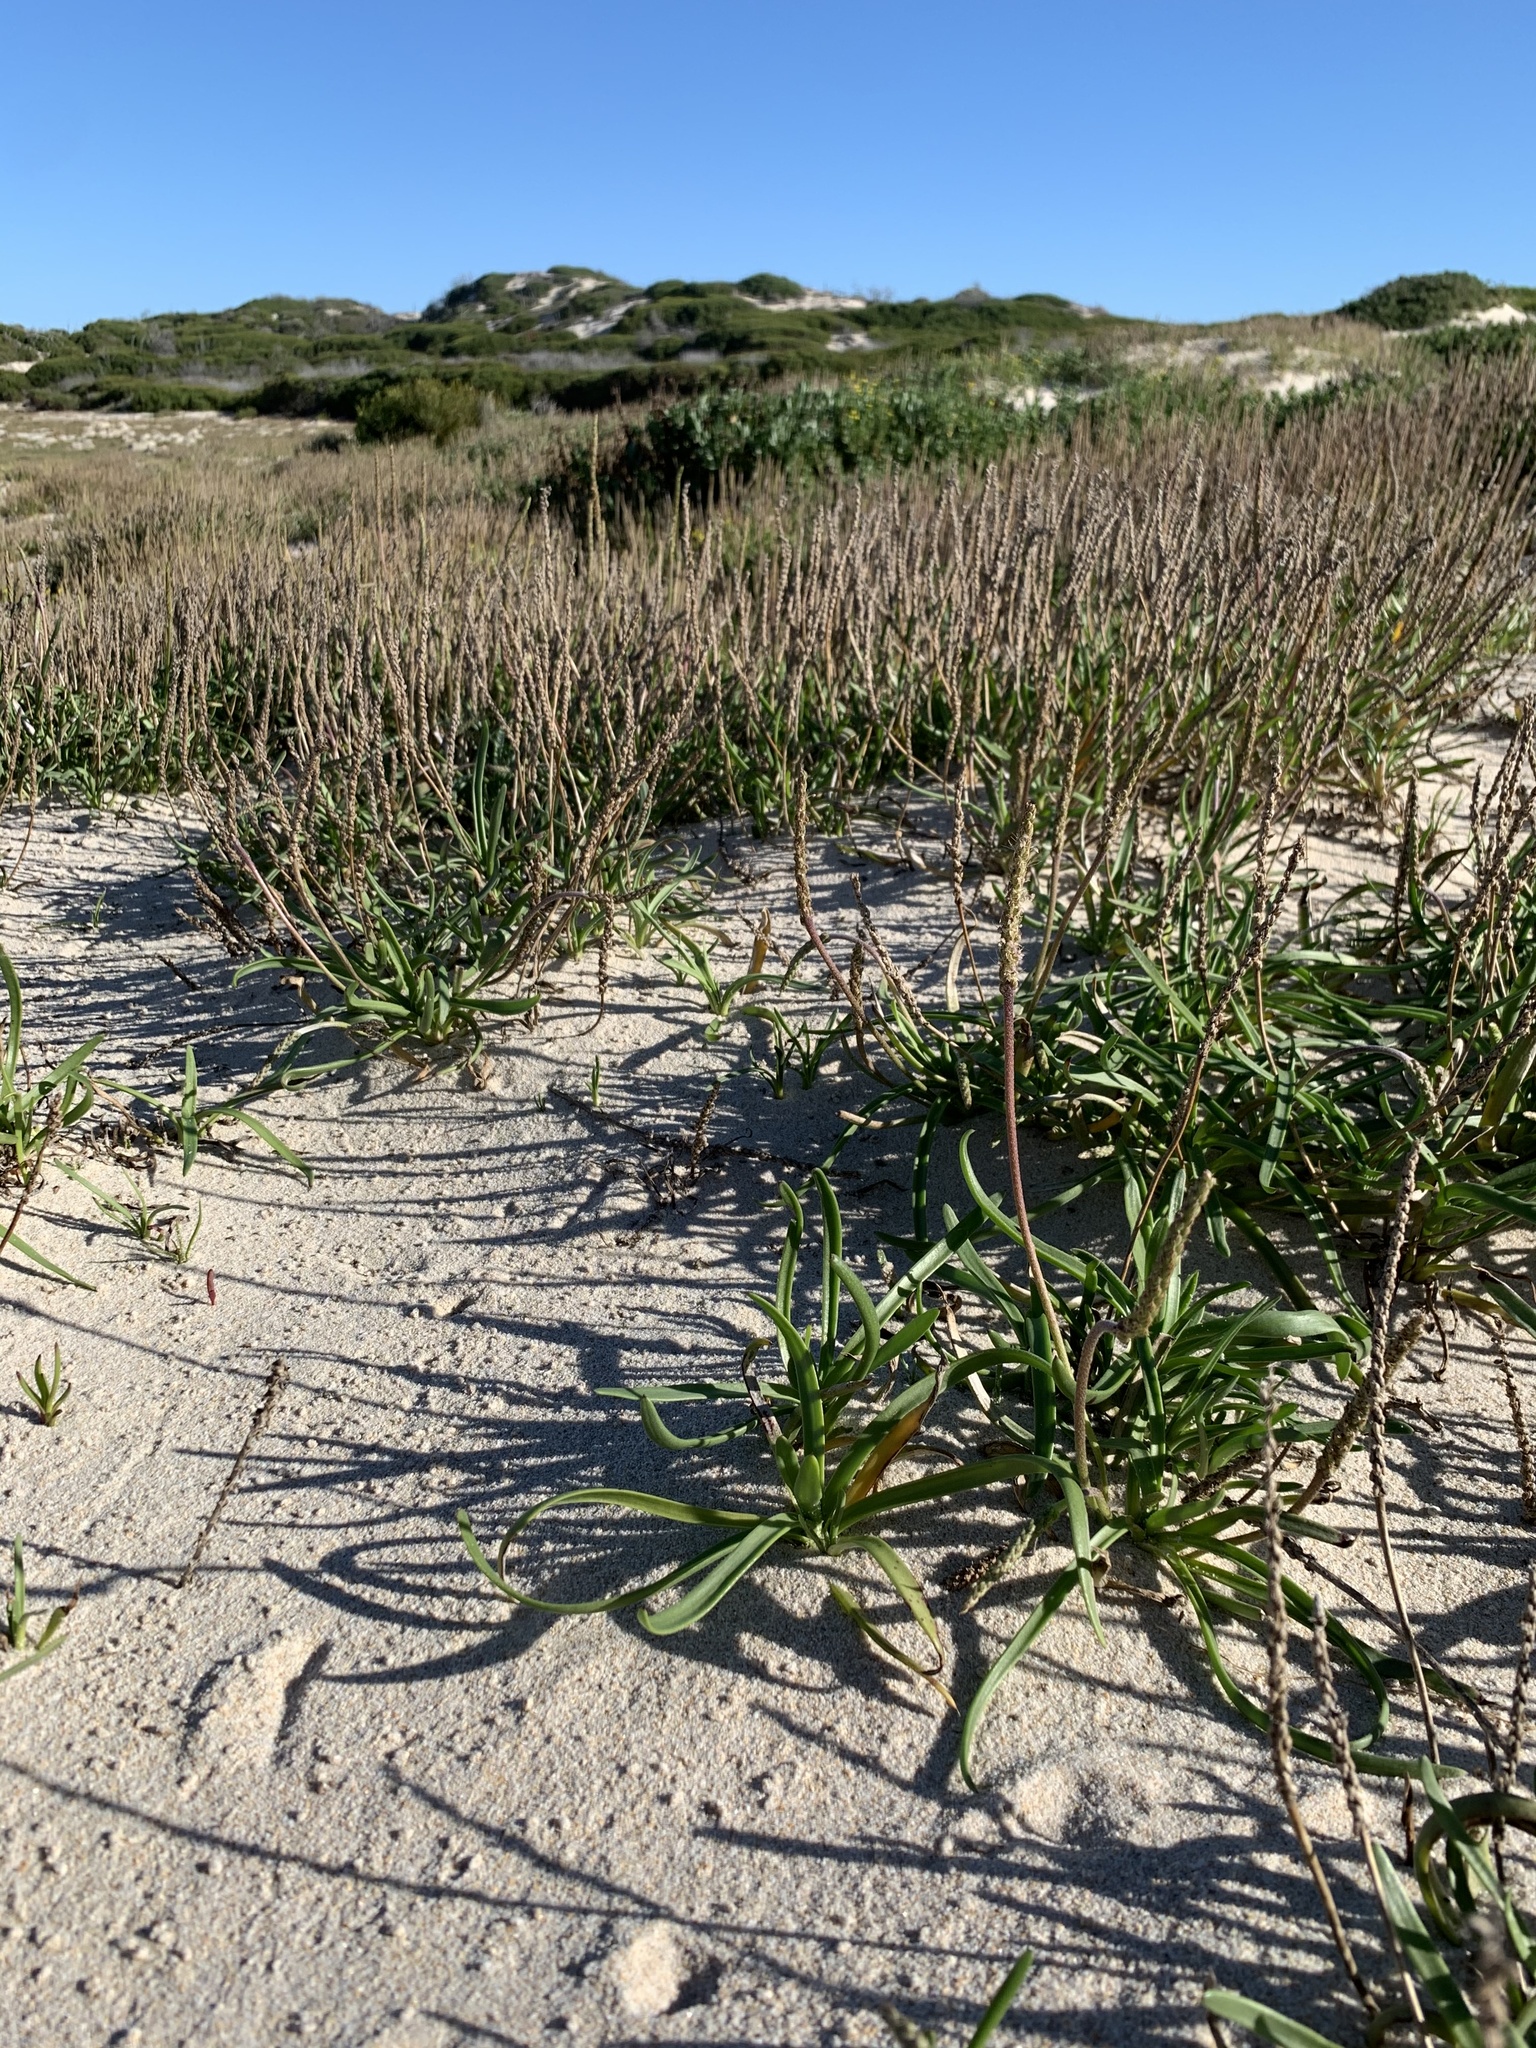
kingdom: Plantae
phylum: Tracheophyta
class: Magnoliopsida
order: Lamiales
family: Plantaginaceae
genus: Plantago
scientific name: Plantago carnosa
